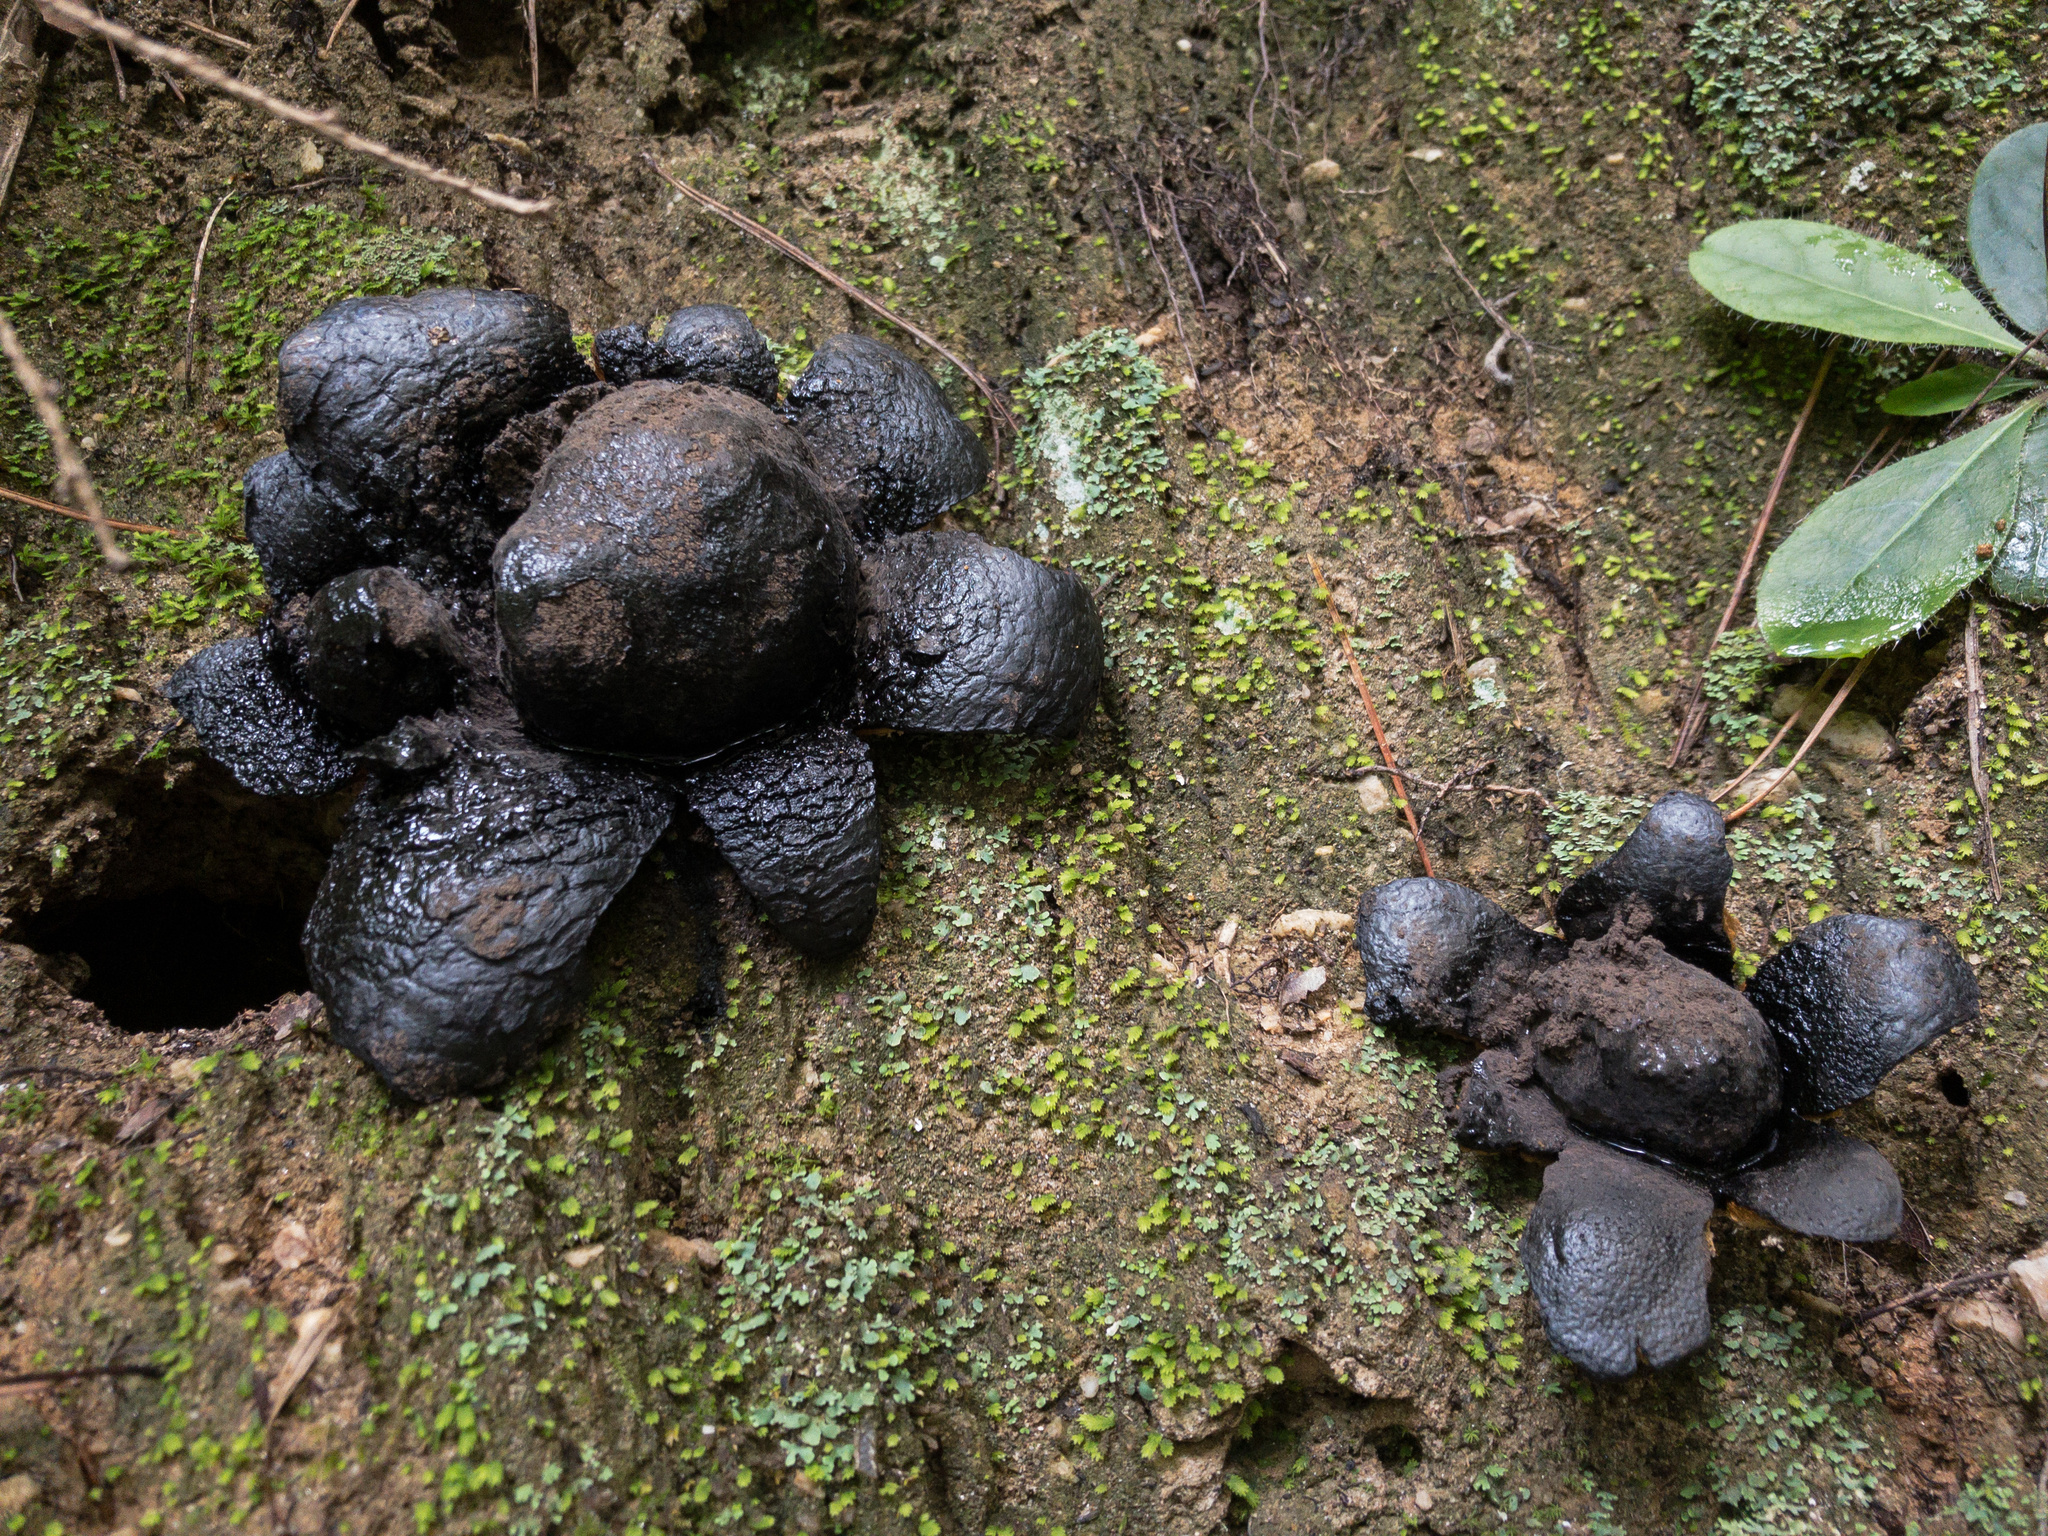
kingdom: Fungi
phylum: Basidiomycota
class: Agaricomycetes
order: Boletales
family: Sclerodermataceae
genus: Scleroderma
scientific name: Scleroderma polyrhizum
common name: Many-rooted earthball
